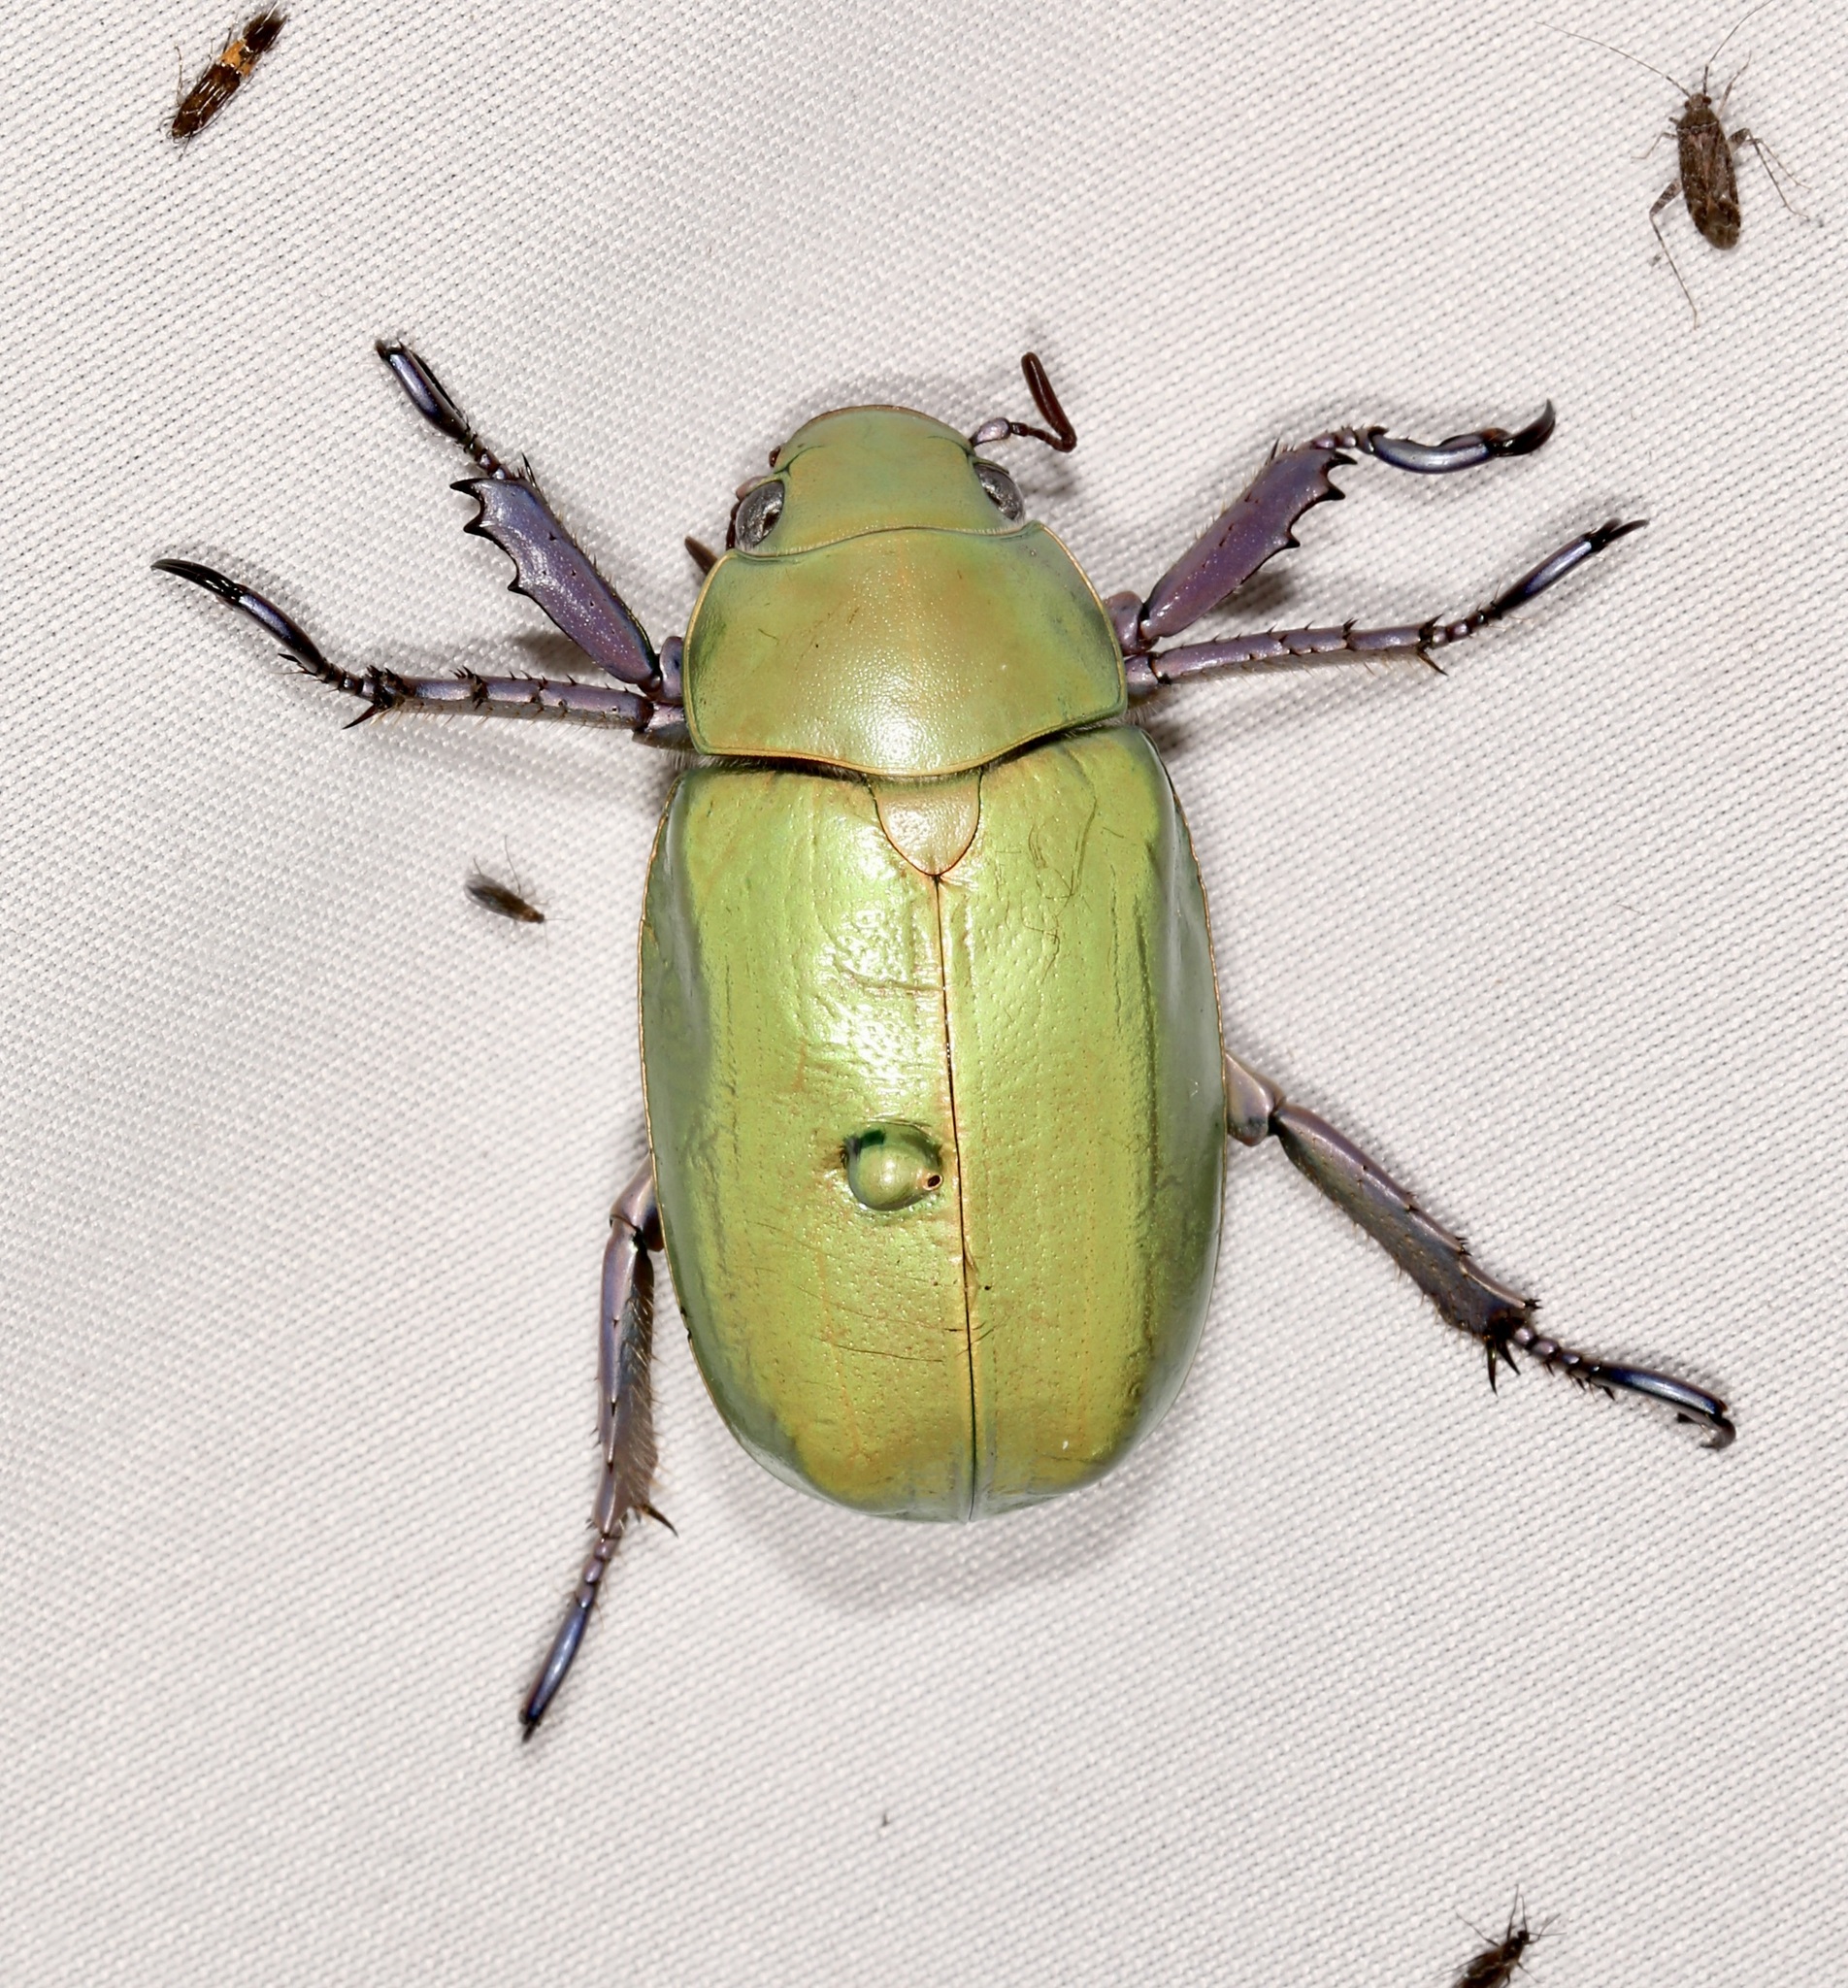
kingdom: Animalia
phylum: Arthropoda
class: Insecta
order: Coleoptera
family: Scarabaeidae
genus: Chrysina
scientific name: Chrysina beyeri
